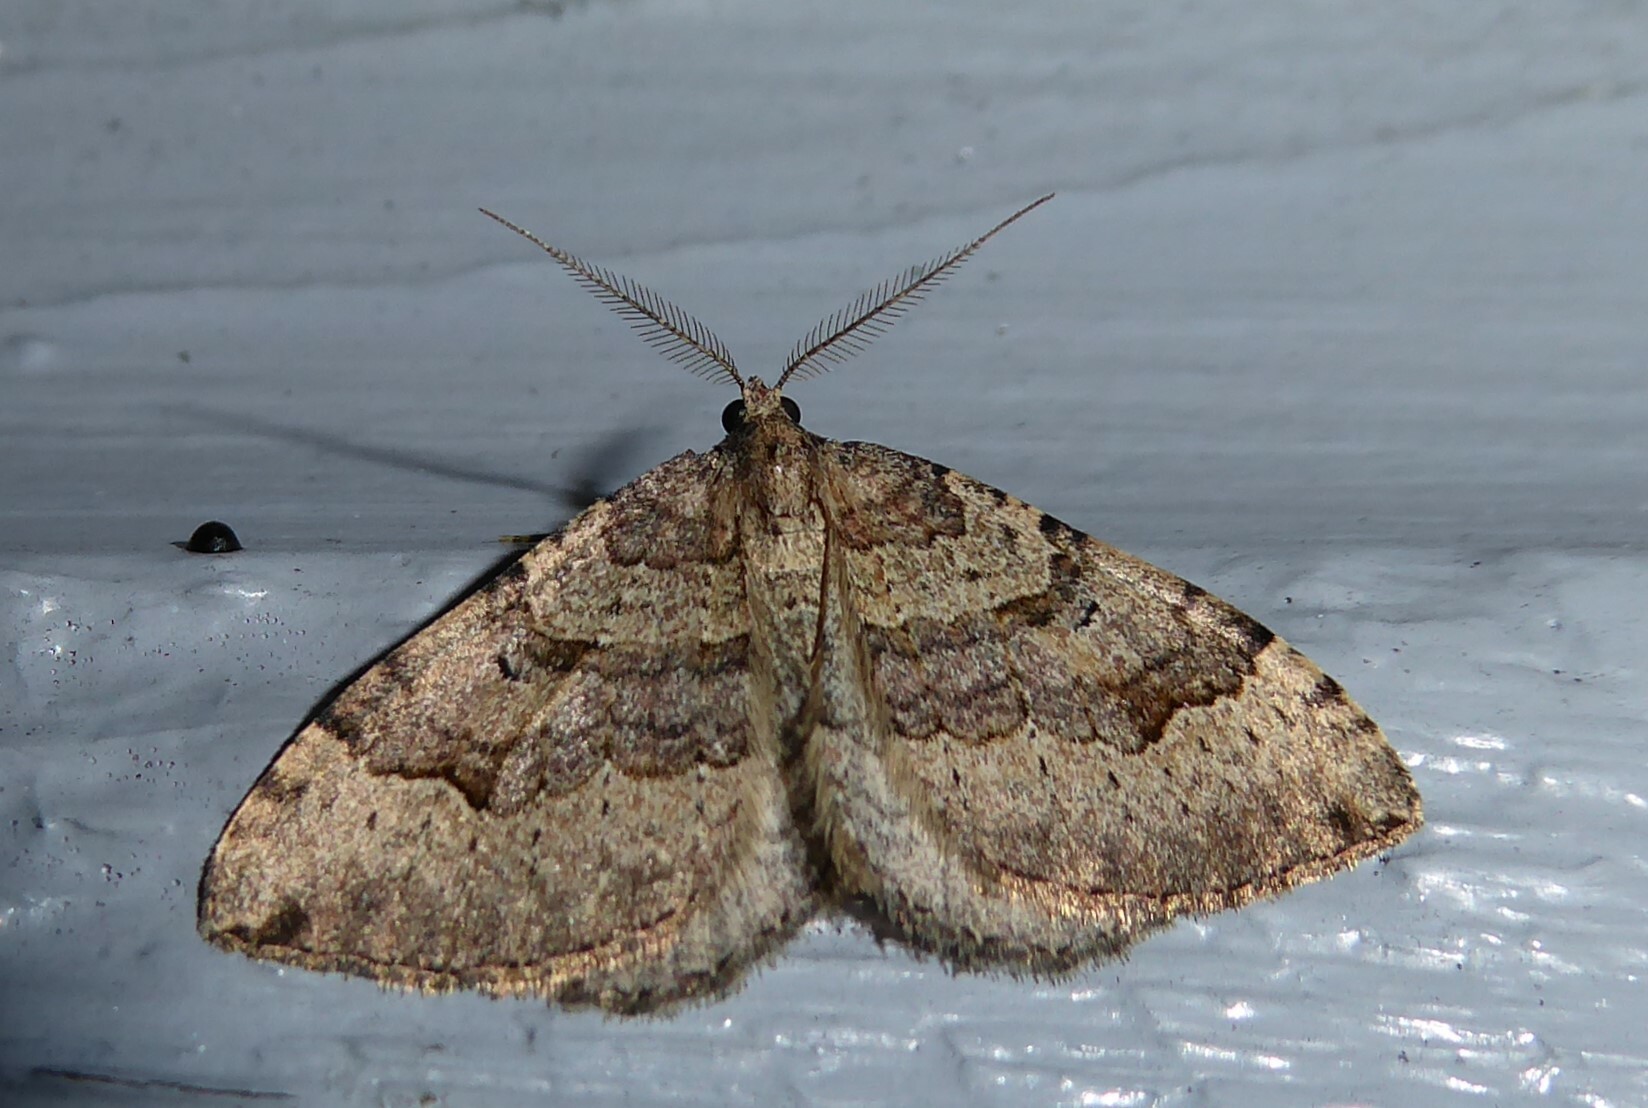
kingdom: Animalia
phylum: Arthropoda
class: Insecta
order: Lepidoptera
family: Geometridae
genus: Epyaxa
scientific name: Epyaxa rosearia
